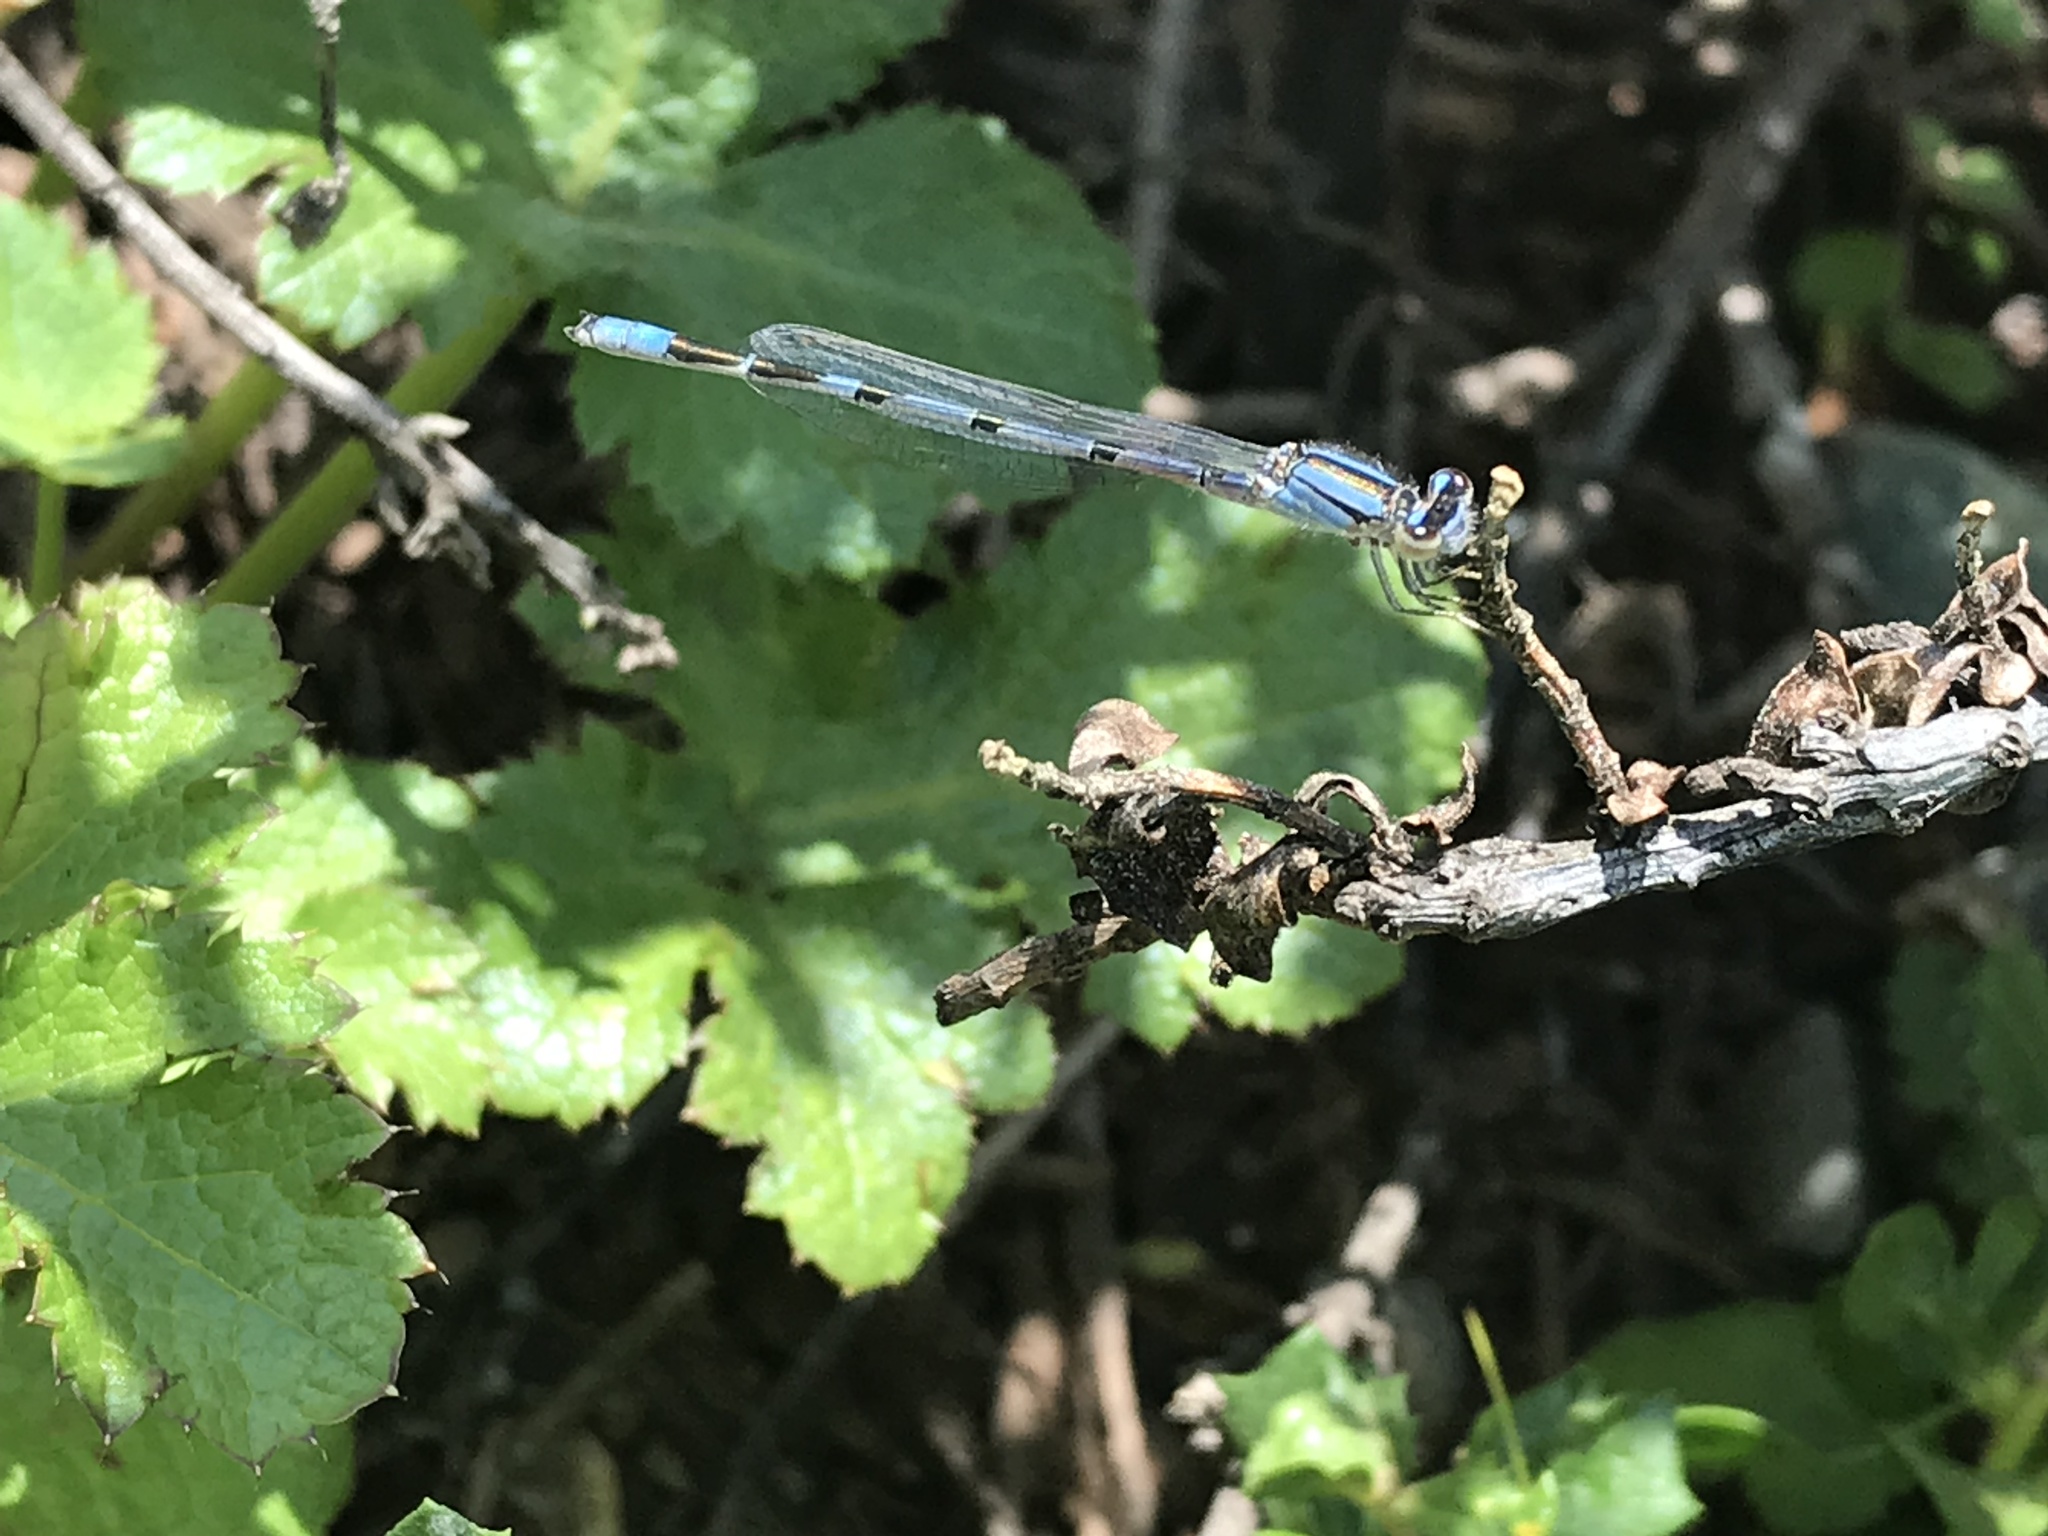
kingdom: Animalia
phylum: Arthropoda
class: Insecta
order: Odonata
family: Coenagrionidae
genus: Enallagma
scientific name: Enallagma civile
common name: Damselfly
